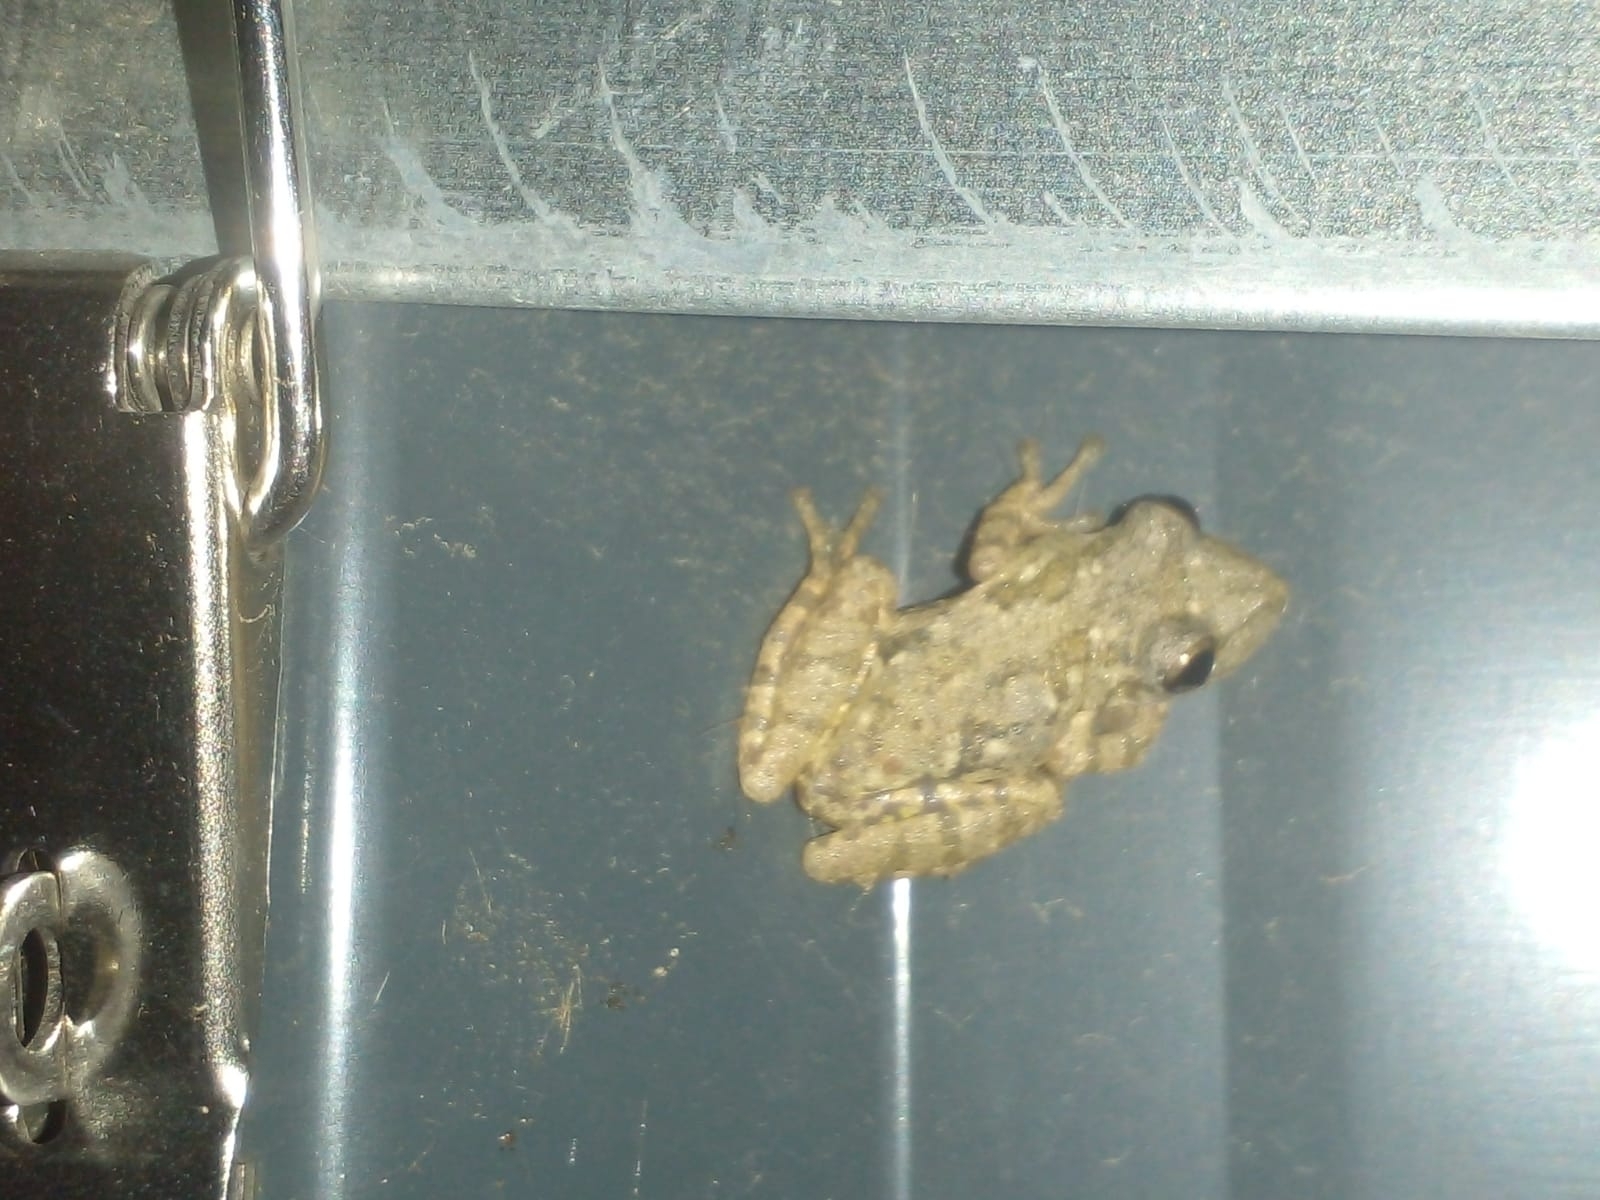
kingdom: Animalia
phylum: Chordata
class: Amphibia
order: Anura
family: Hylidae
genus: Scinax
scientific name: Scinax granulatus
